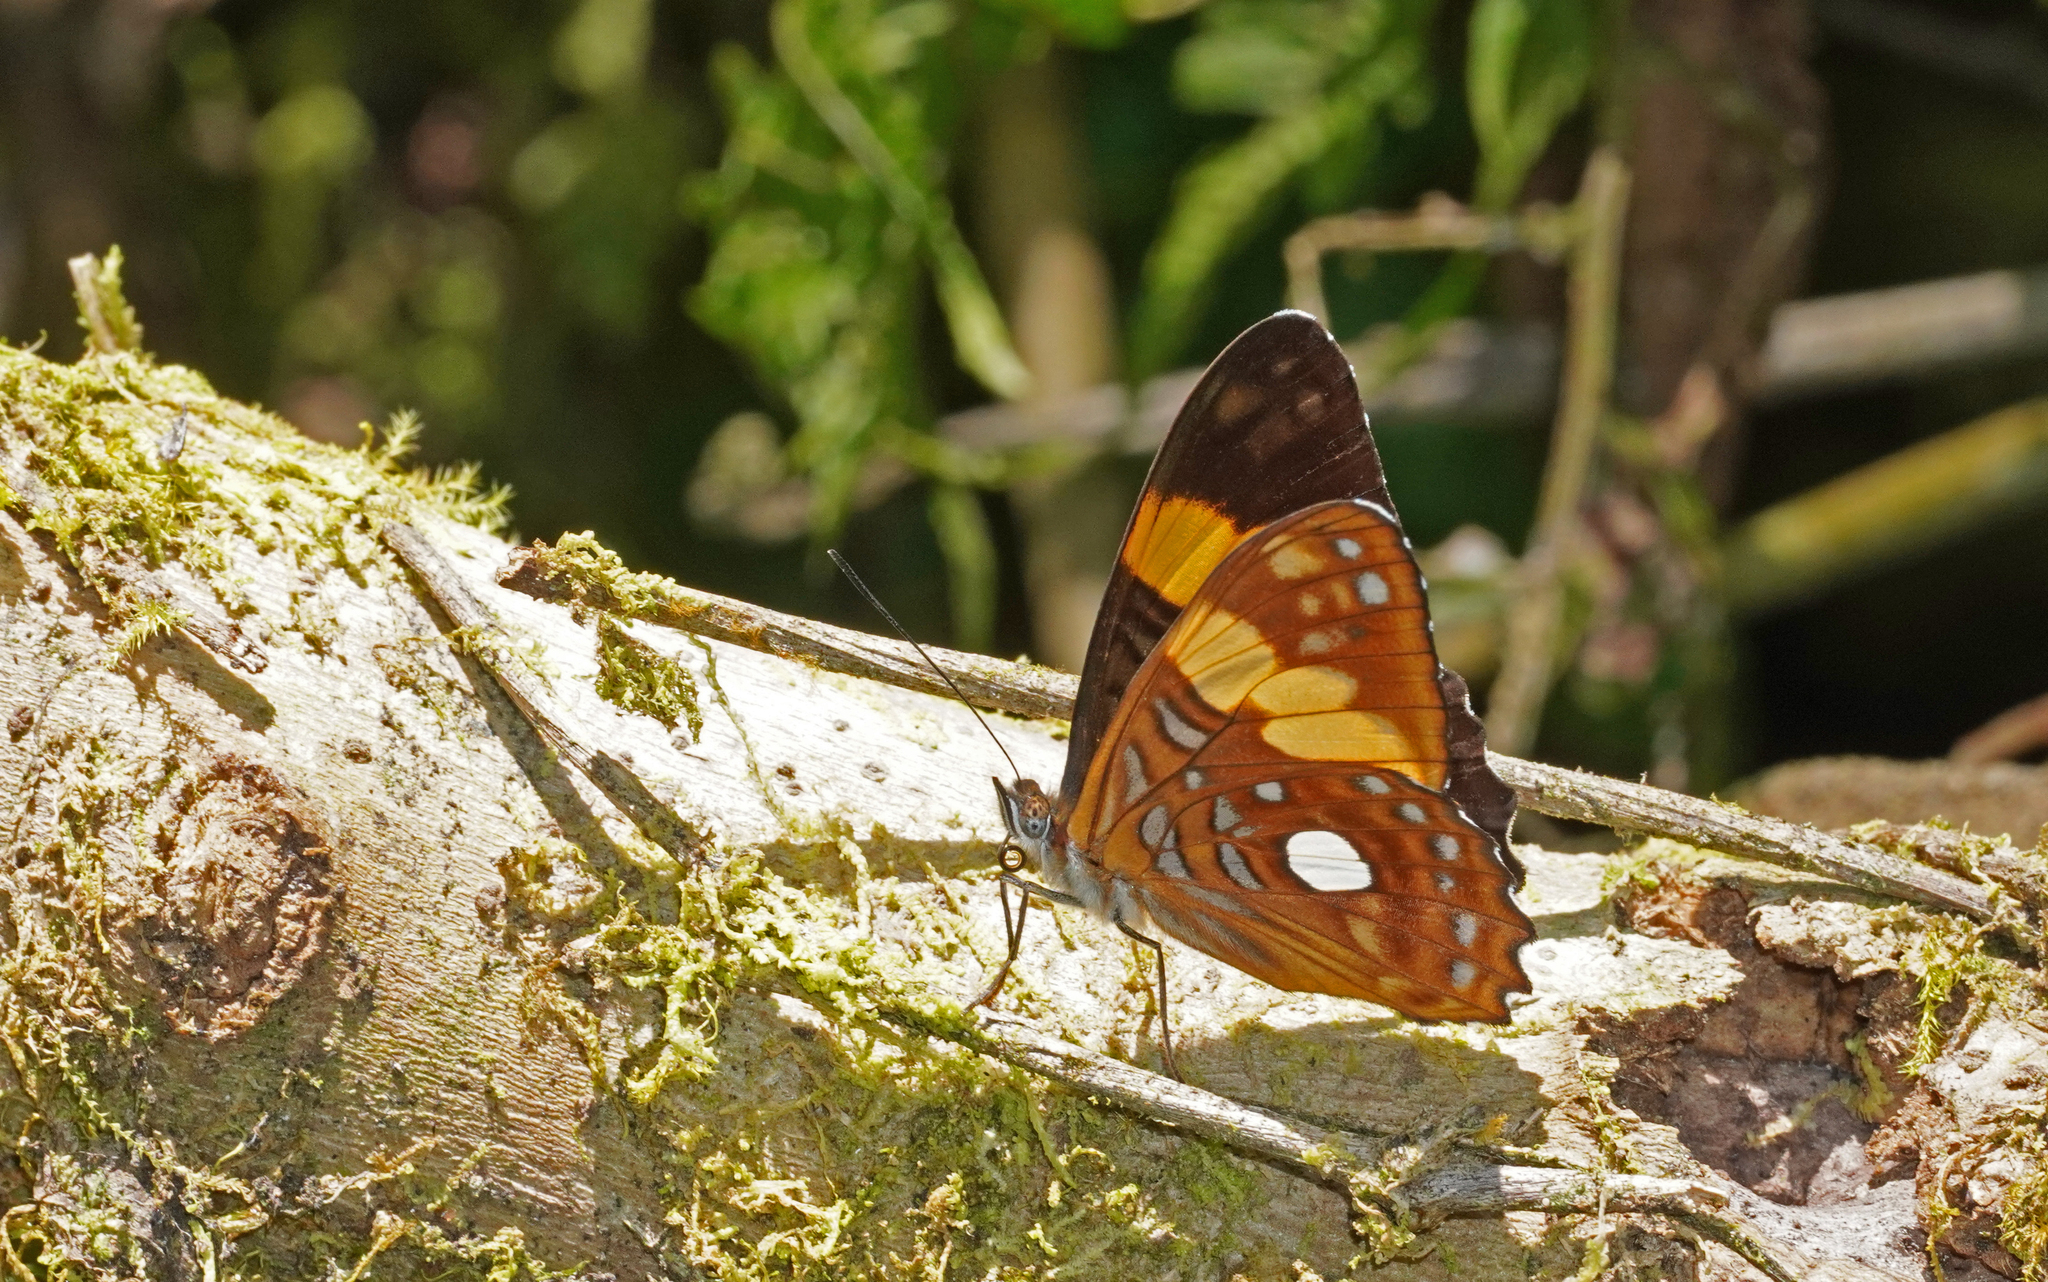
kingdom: Animalia
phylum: Arthropoda
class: Insecta
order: Lepidoptera
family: Nymphalidae
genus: Limenitis
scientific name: Limenitis leucophthalma
